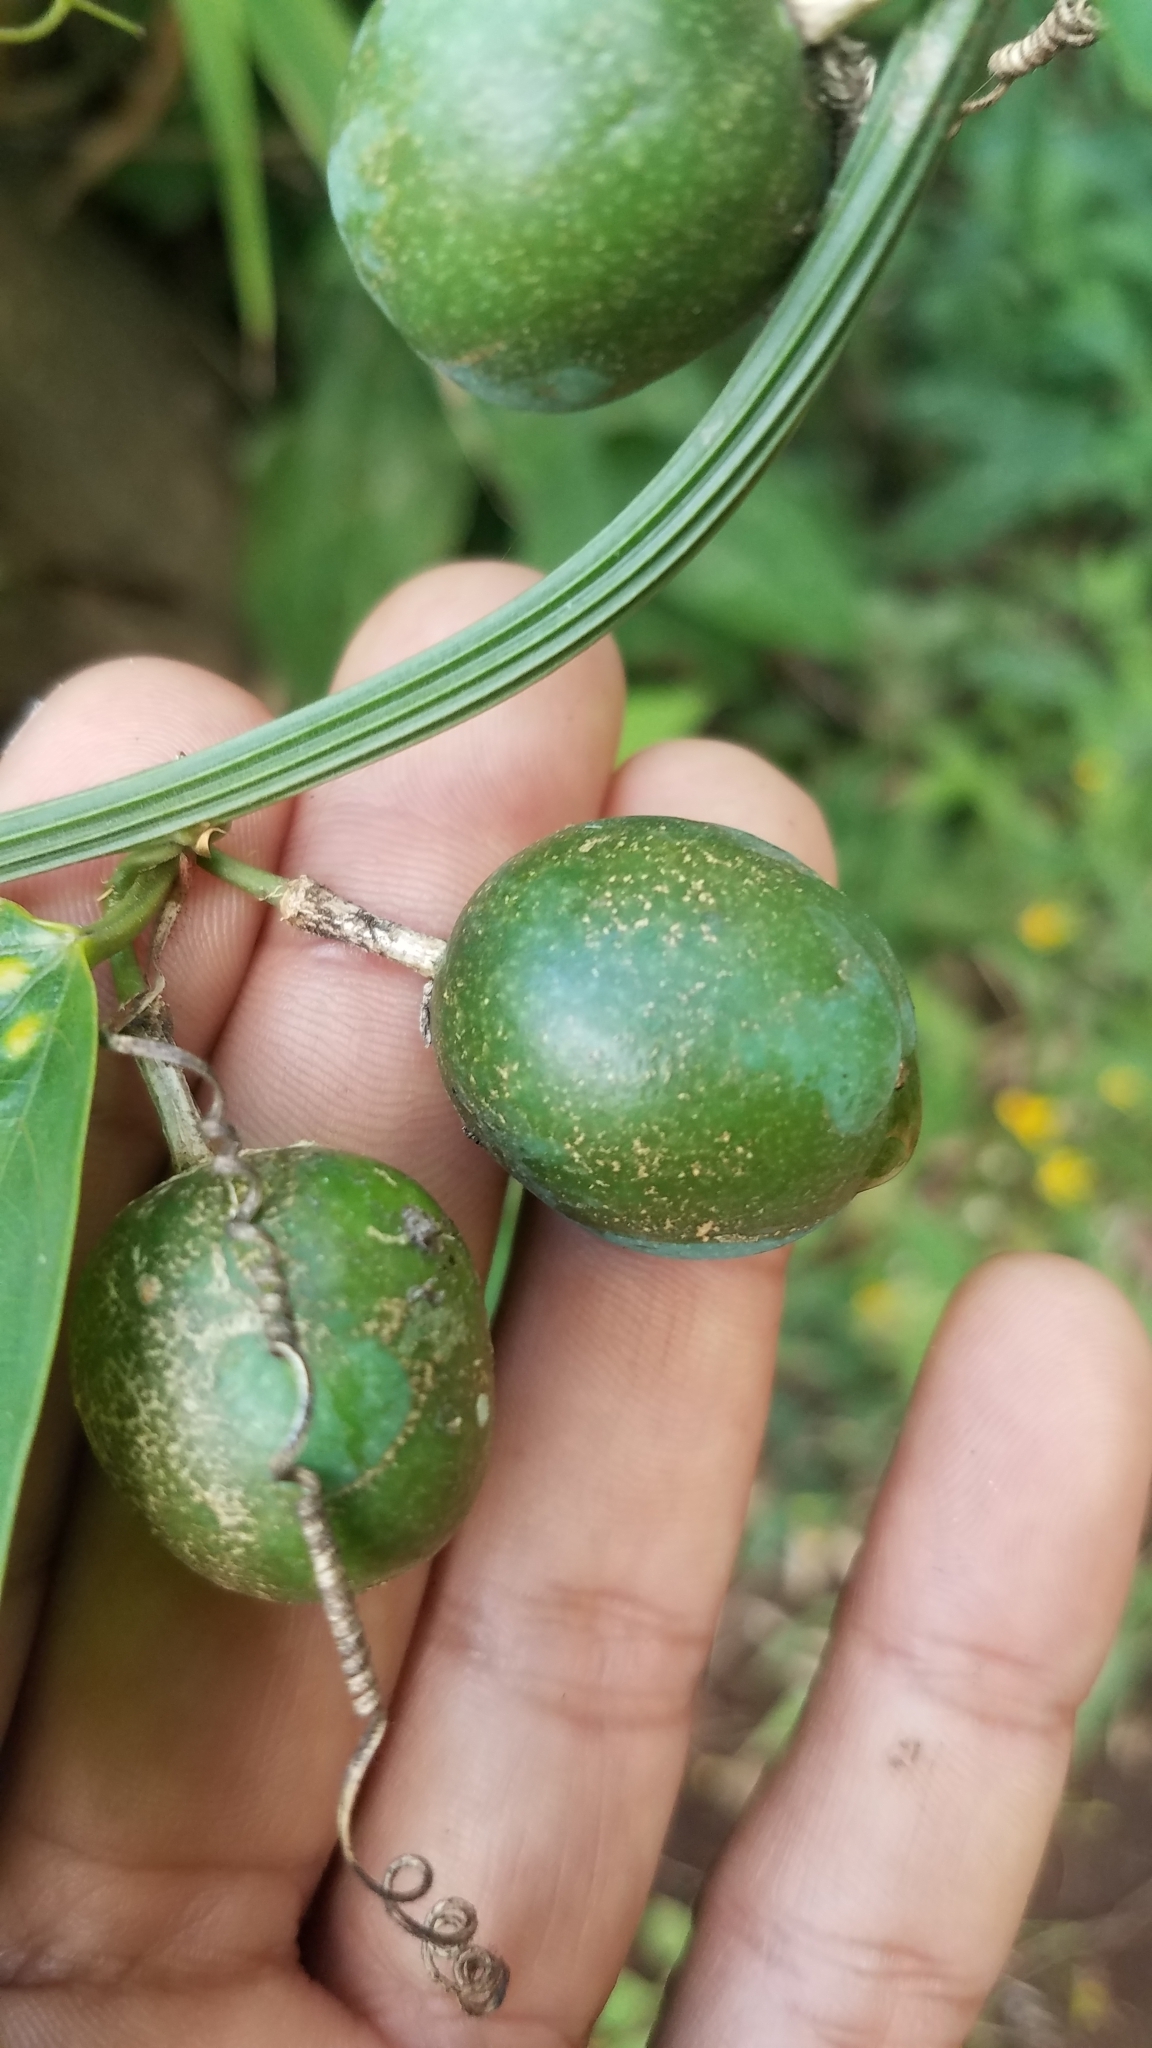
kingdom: Plantae
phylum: Tracheophyta
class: Magnoliopsida
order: Malpighiales
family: Passifloraceae
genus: Passiflora
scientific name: Passiflora biflora
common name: Twoflower passionflower
